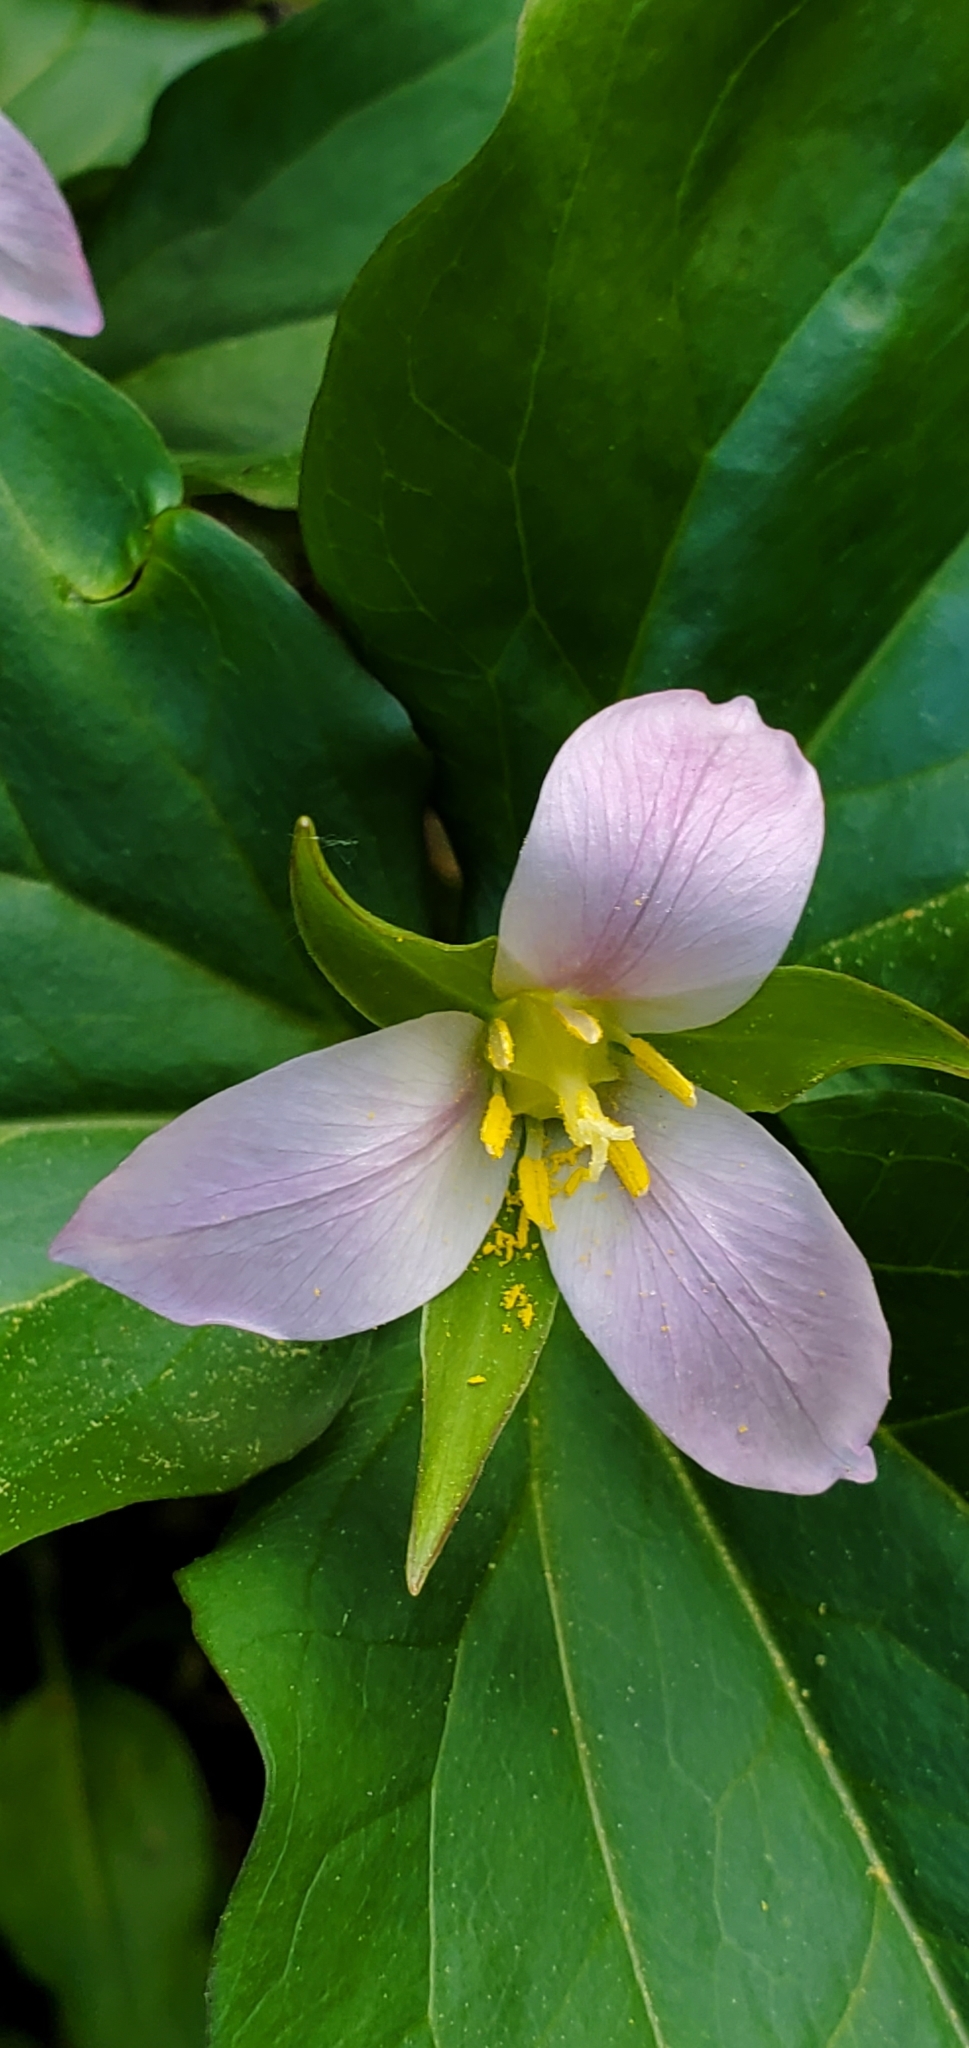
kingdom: Plantae
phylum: Tracheophyta
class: Liliopsida
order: Liliales
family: Melanthiaceae
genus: Trillium
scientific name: Trillium ovatum
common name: Pacific trillium
